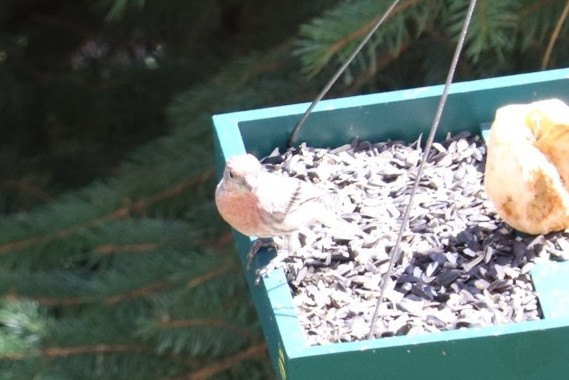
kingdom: Animalia
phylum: Chordata
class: Aves
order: Passeriformes
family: Fringillidae
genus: Haemorhous
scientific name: Haemorhous mexicanus
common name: House finch
